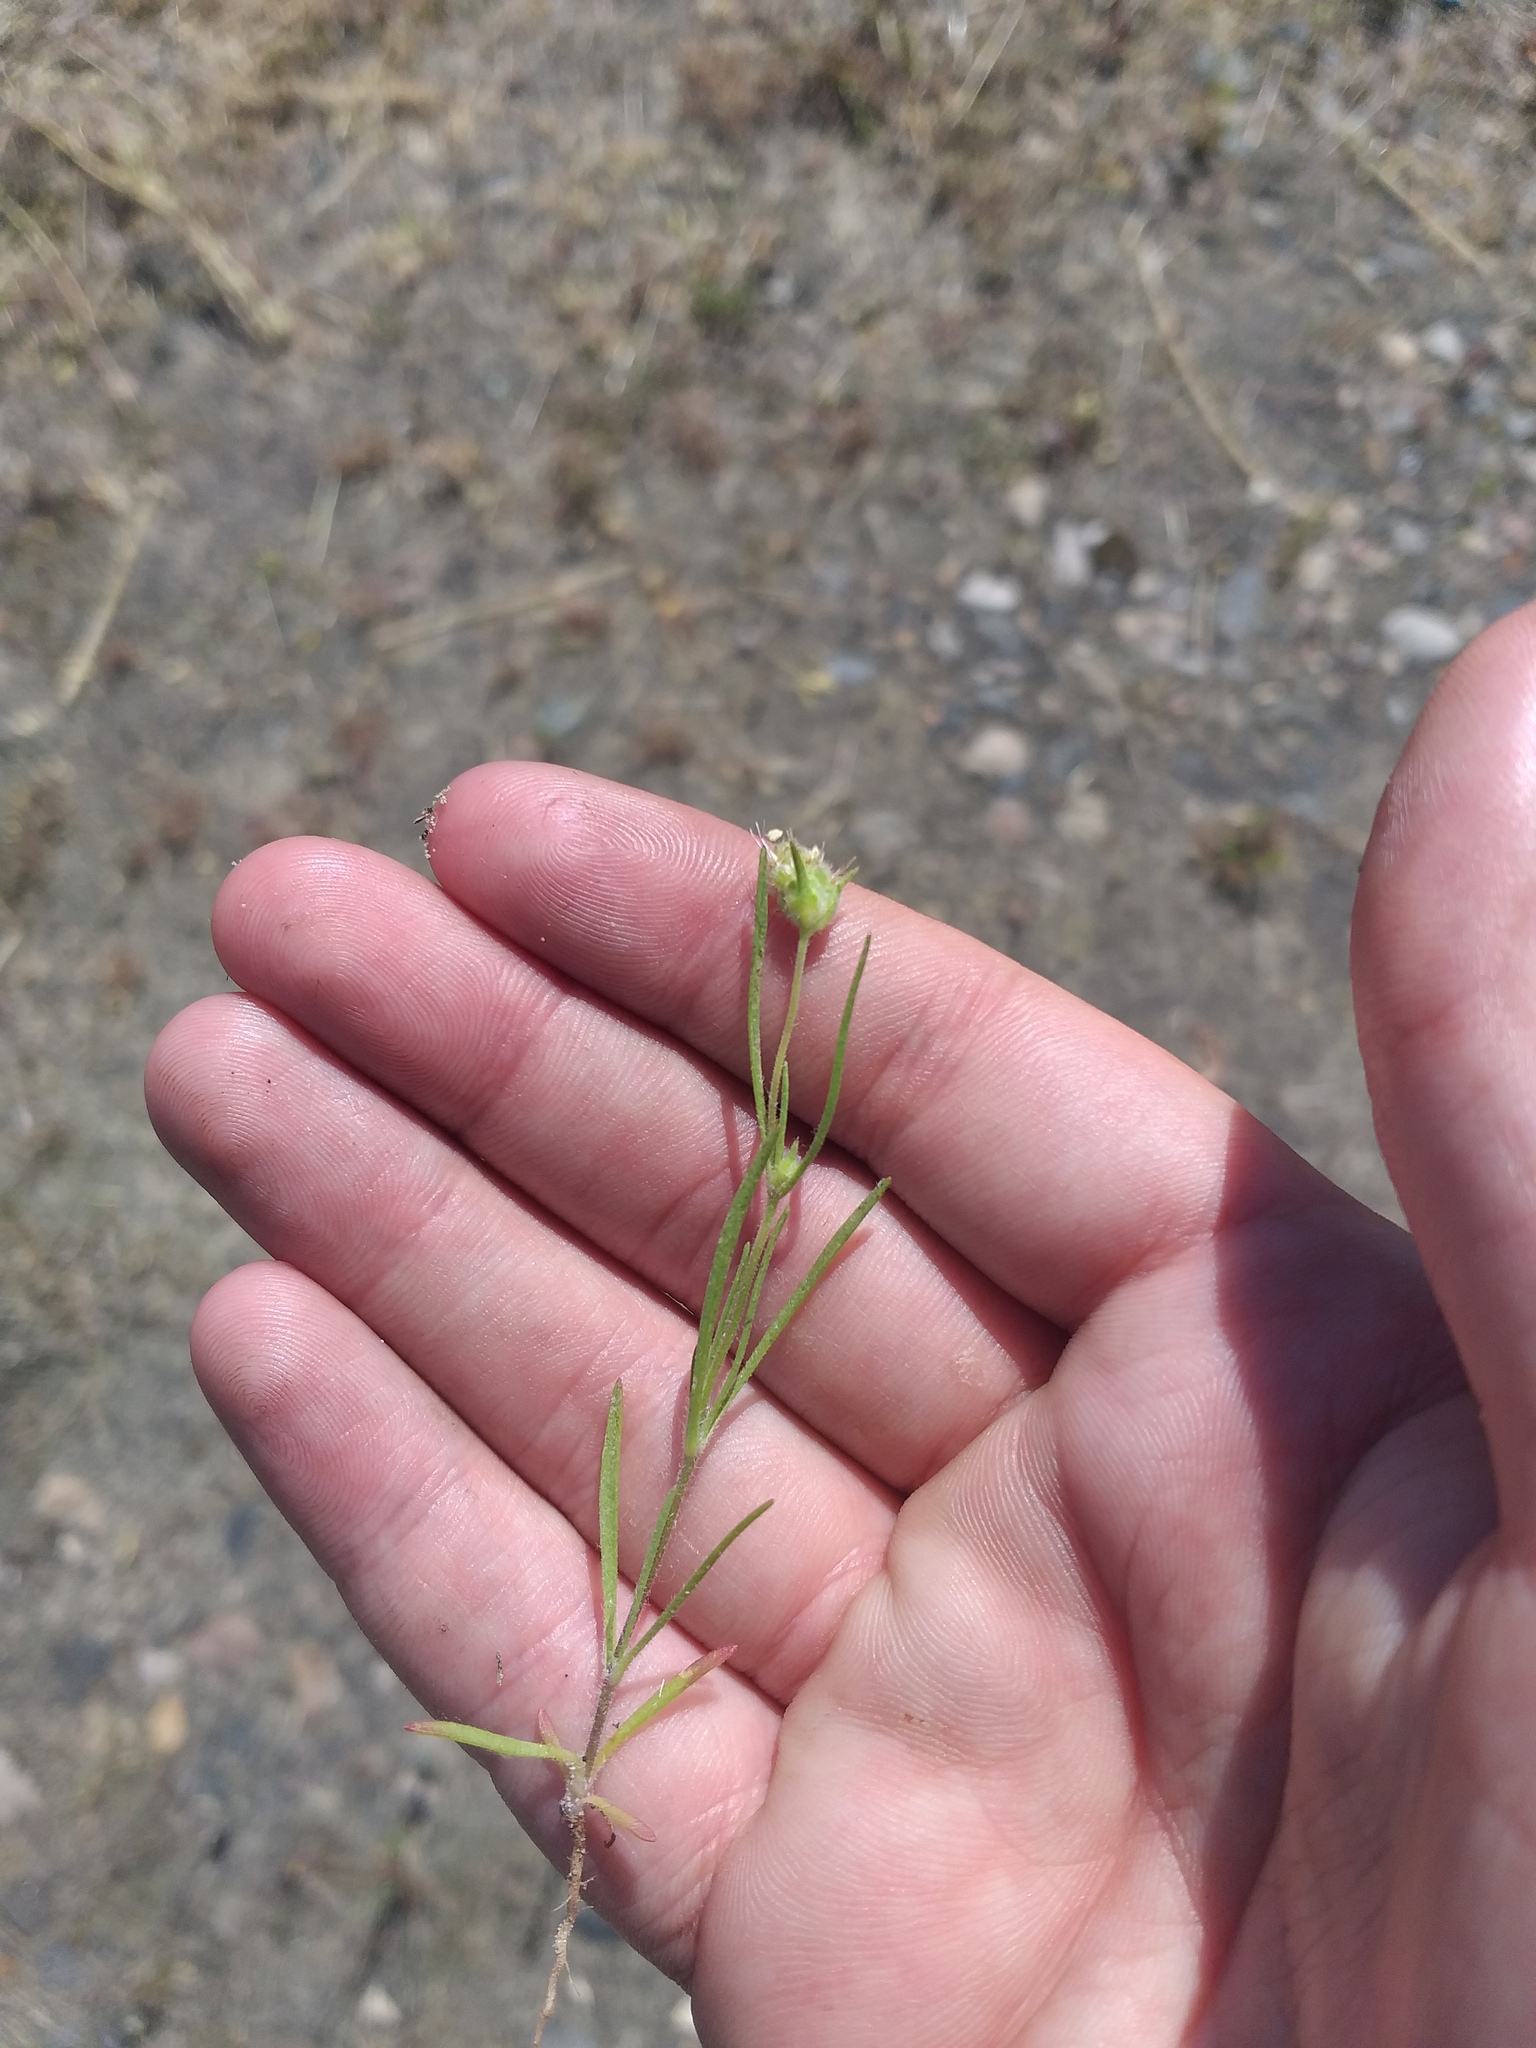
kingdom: Plantae
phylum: Tracheophyta
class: Magnoliopsida
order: Lamiales
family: Plantaginaceae
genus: Plantago
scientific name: Plantago arenaria
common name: Branched plantain
